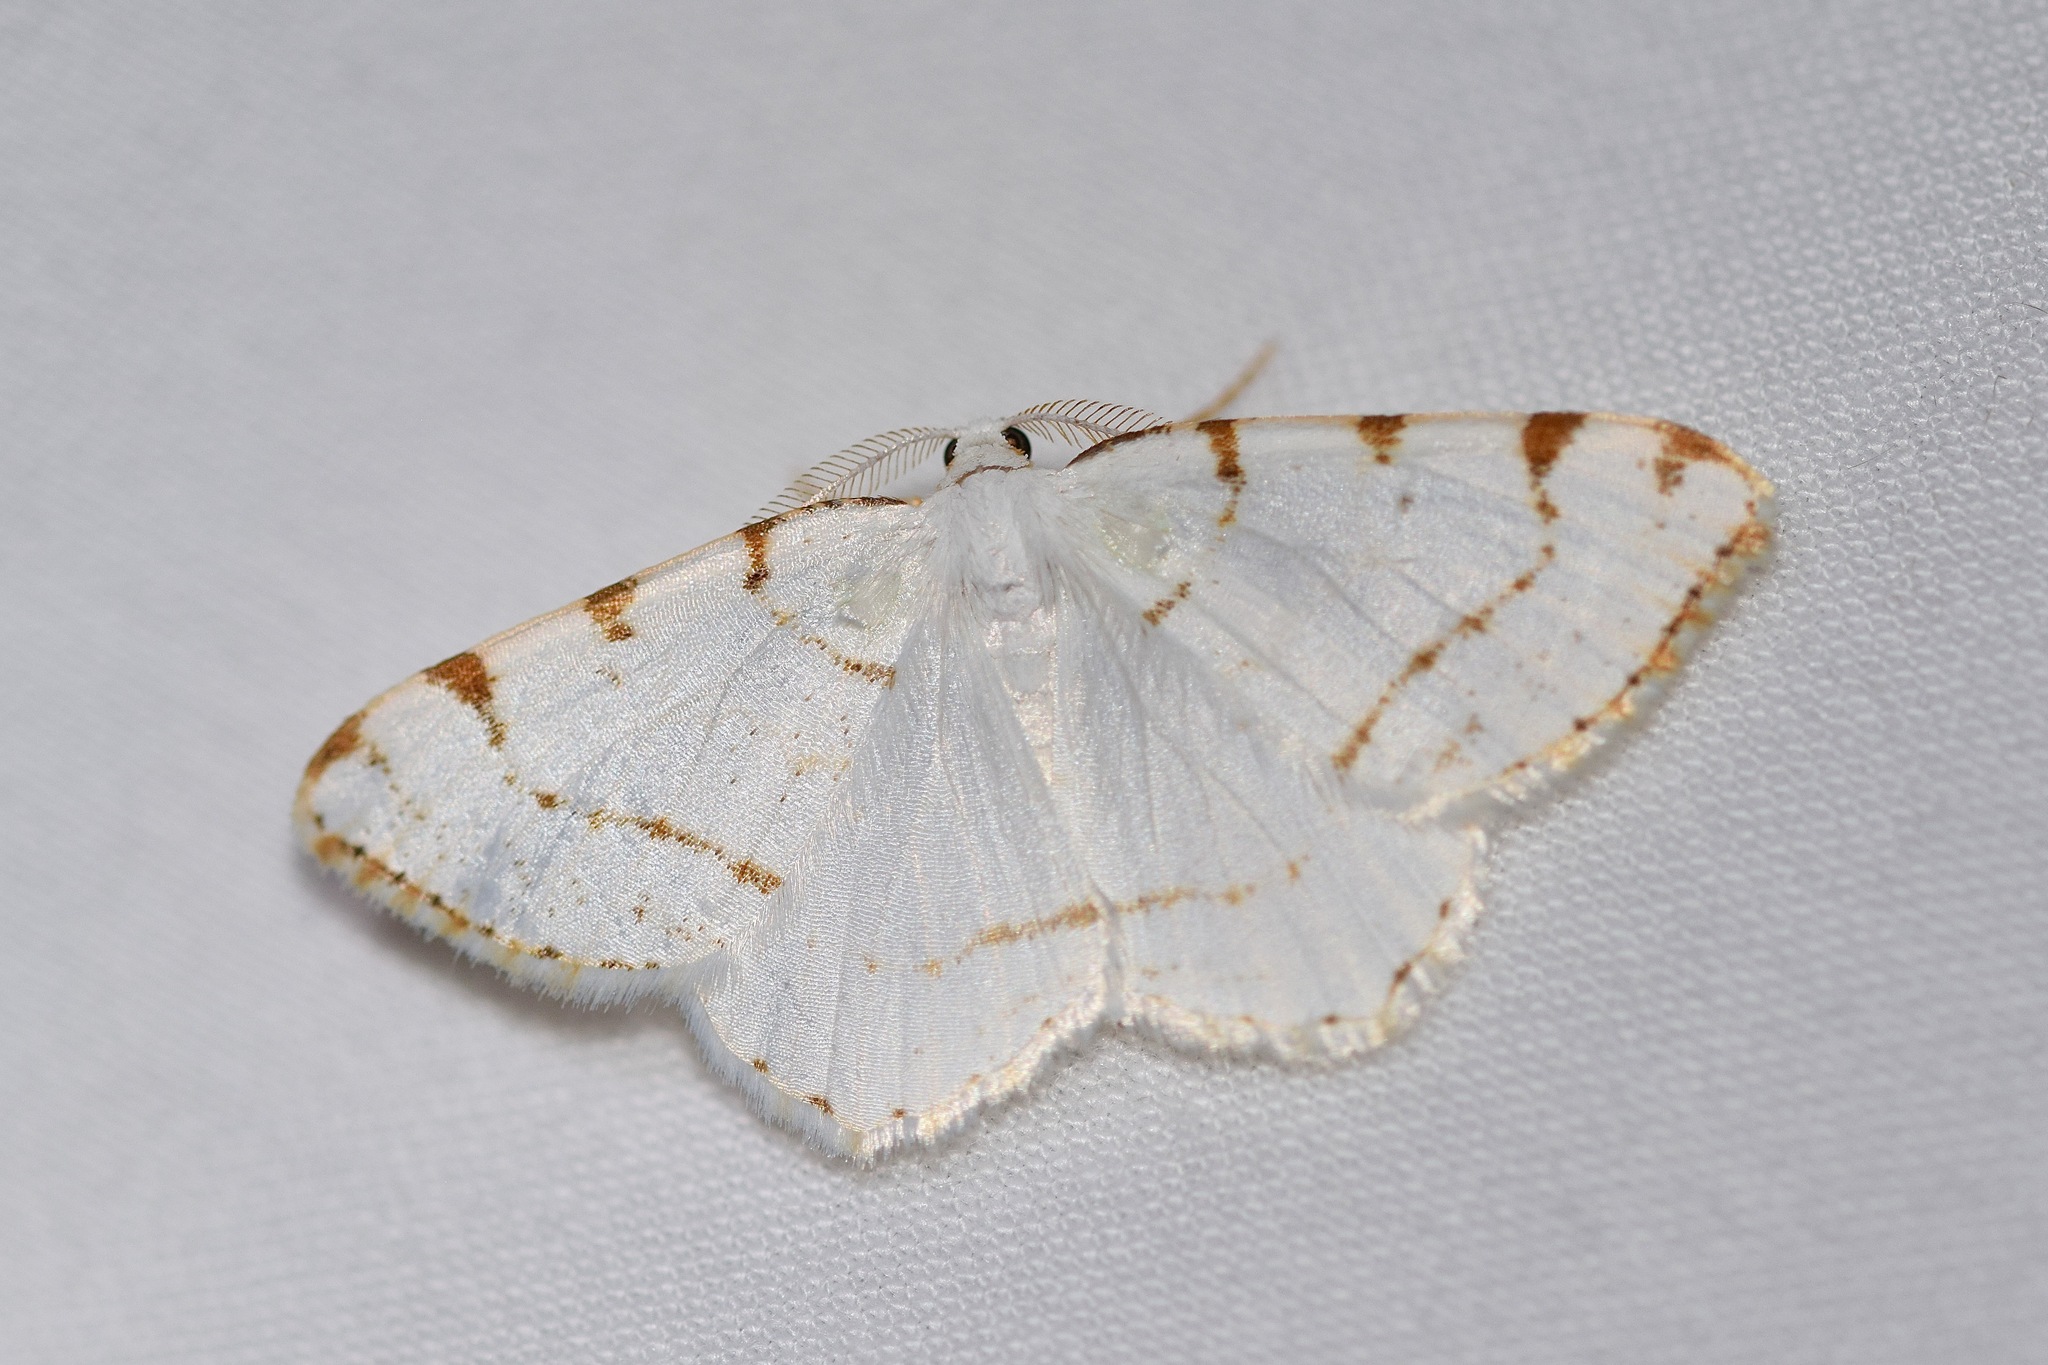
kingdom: Animalia
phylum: Arthropoda
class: Insecta
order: Lepidoptera
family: Geometridae
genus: Macaria
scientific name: Macaria pustularia
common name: Lesser maple spanworm moth
